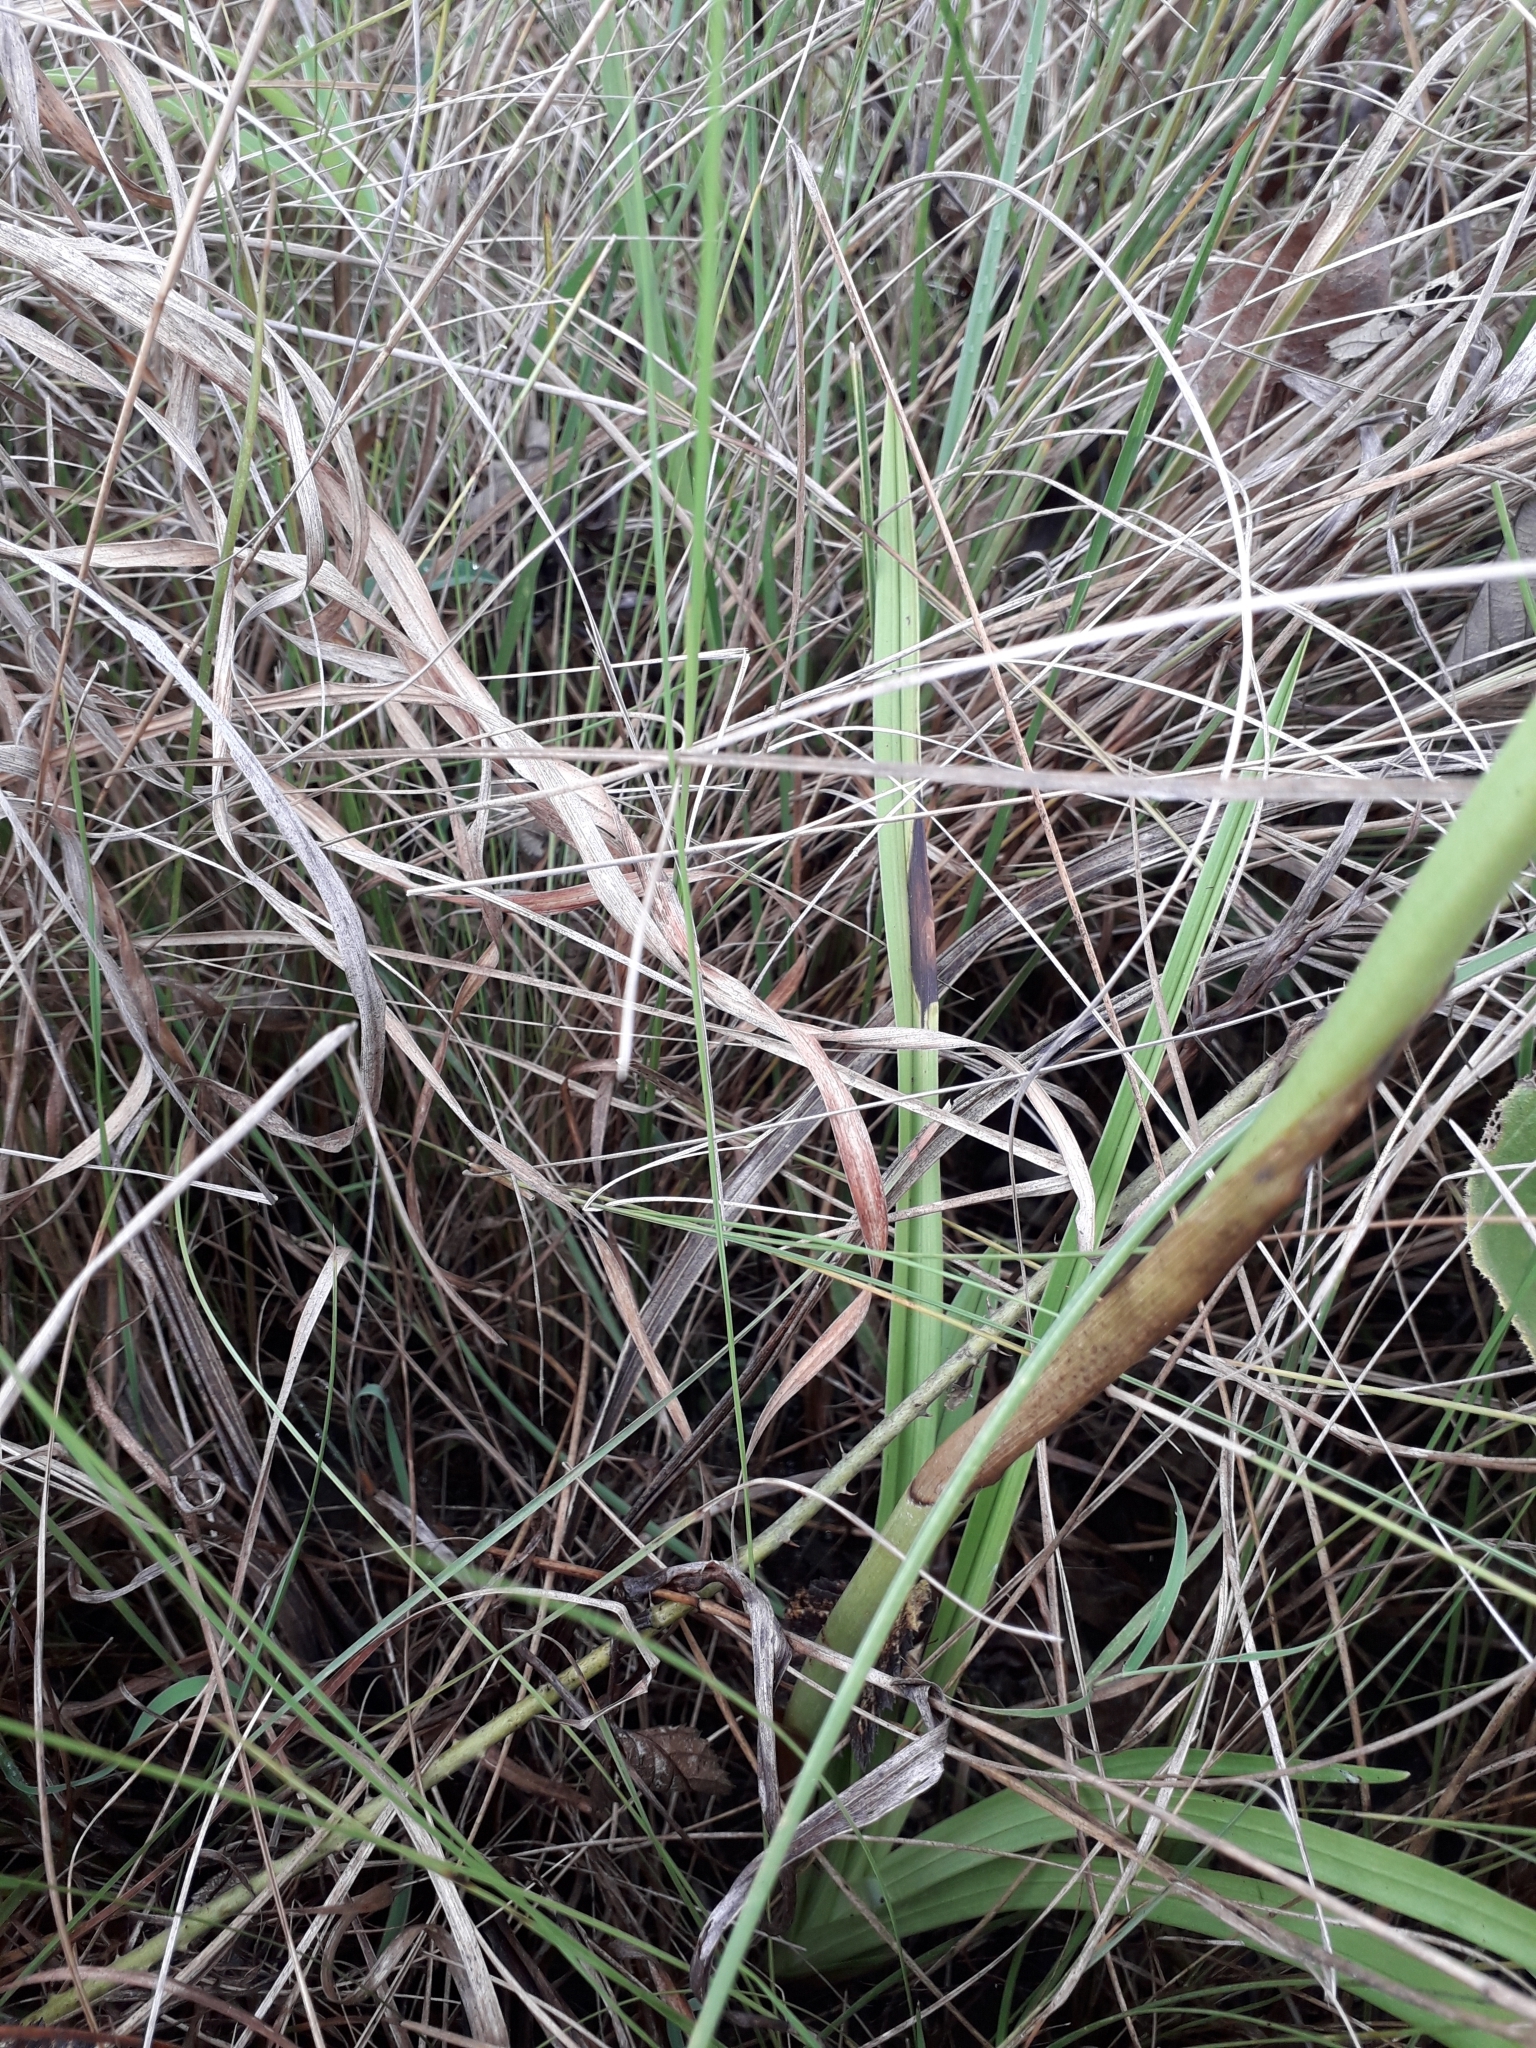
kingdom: Plantae
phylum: Tracheophyta
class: Liliopsida
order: Asparagales
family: Orchidaceae
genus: Eulophia
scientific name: Eulophia parviflora
